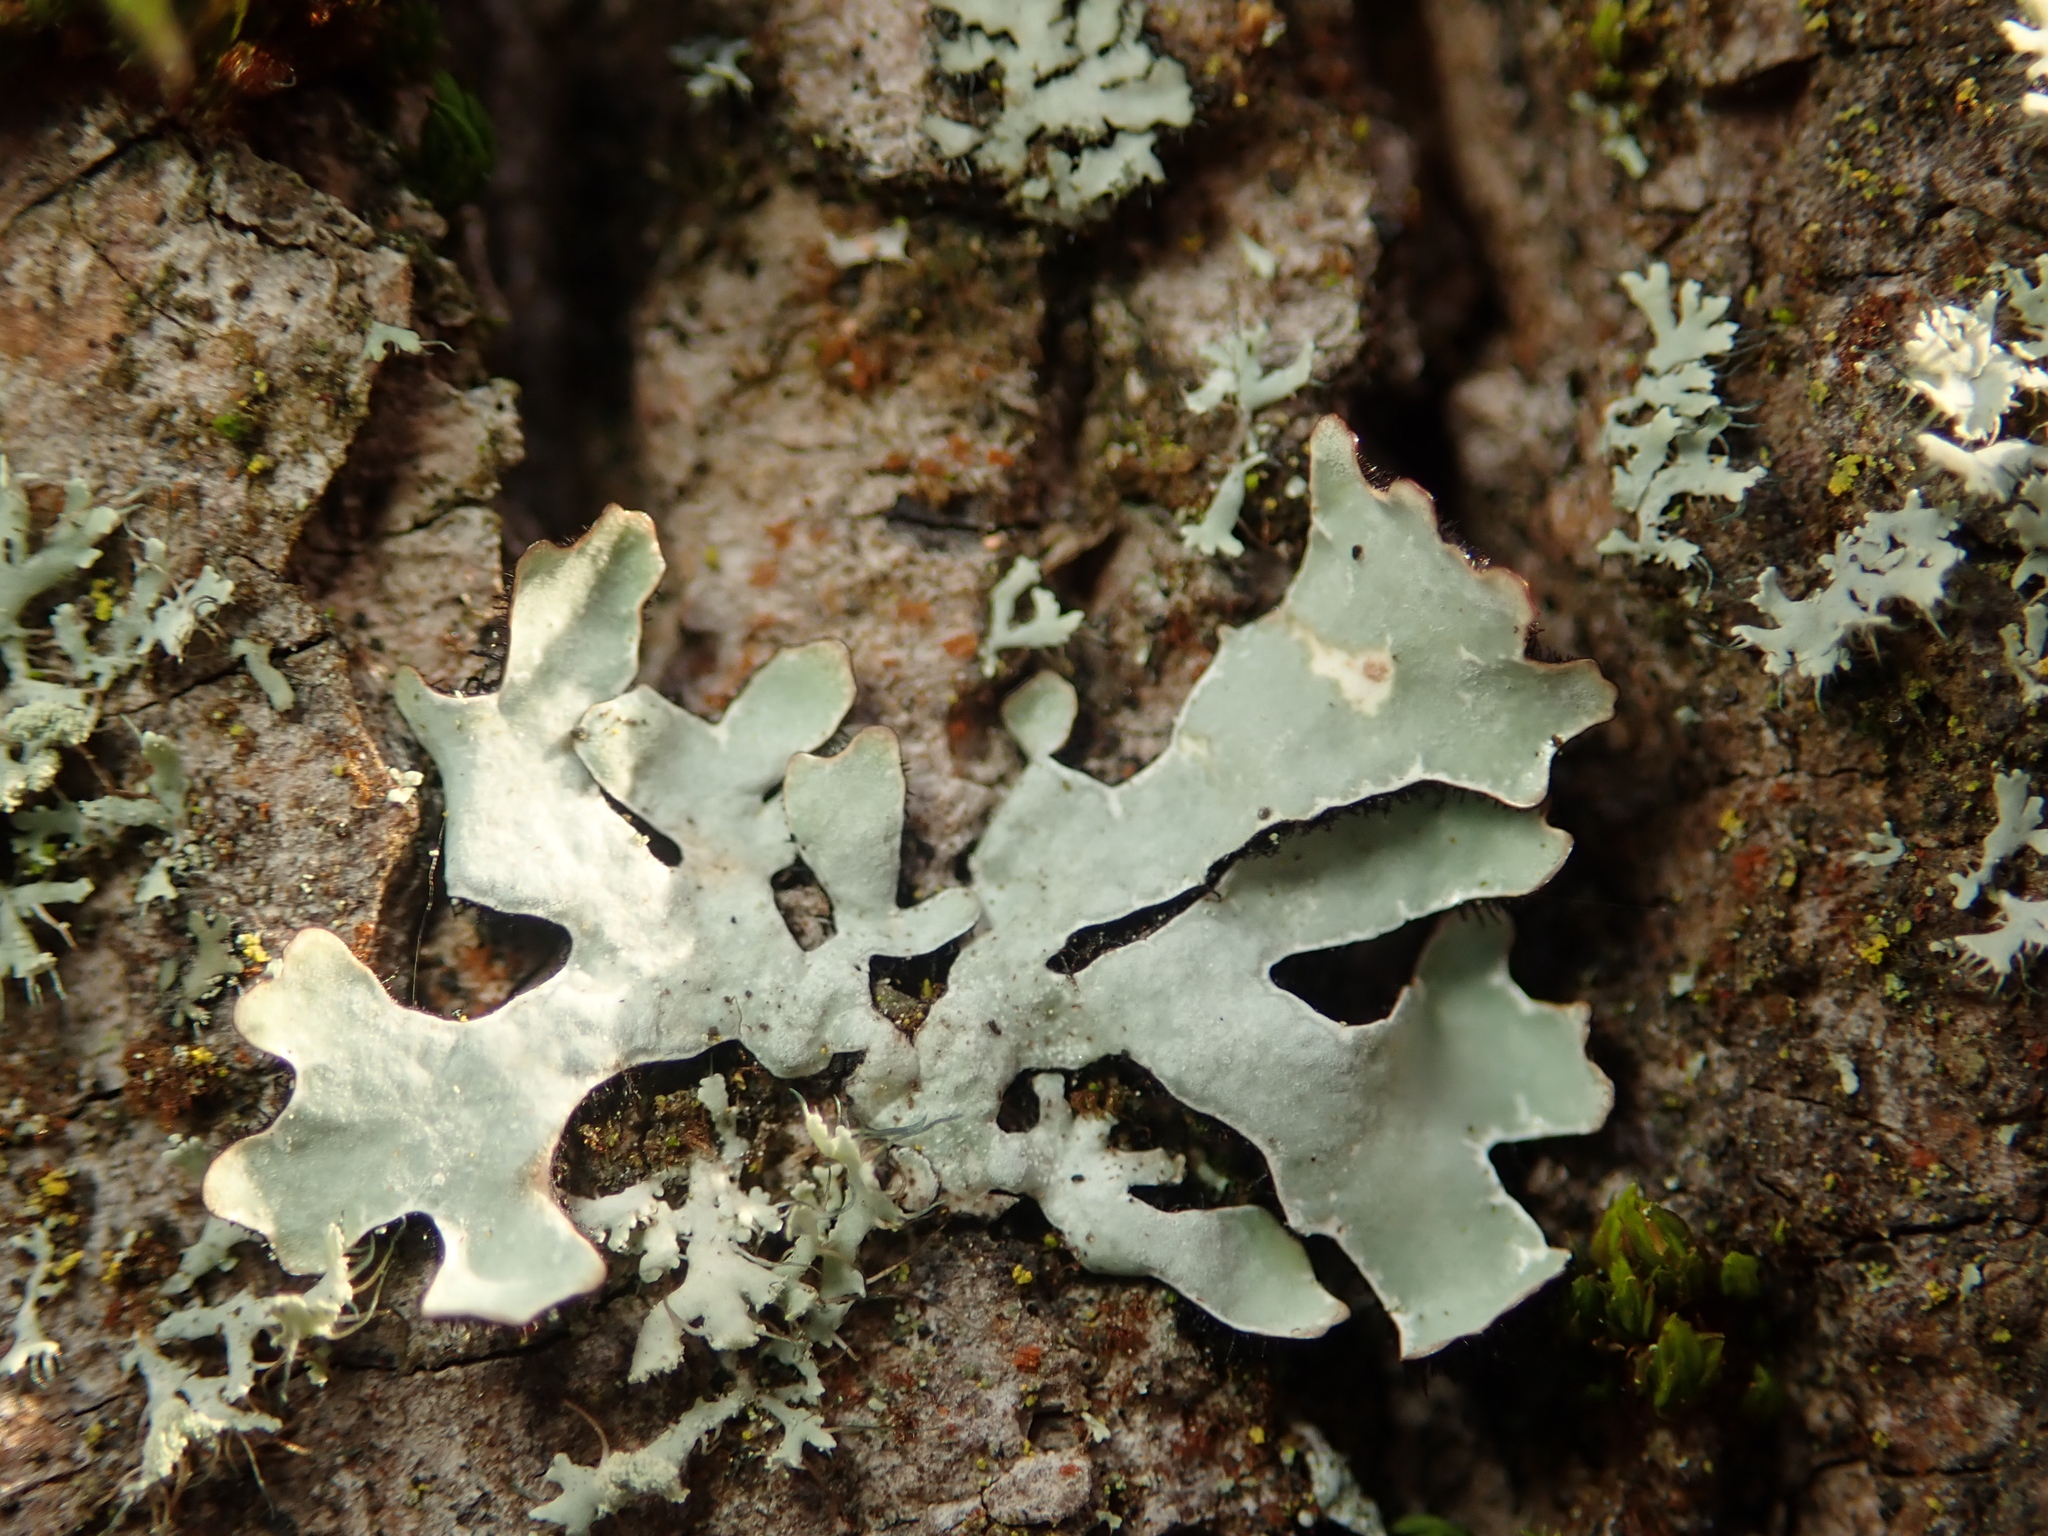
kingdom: Fungi
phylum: Ascomycota
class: Lecanoromycetes
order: Lecanorales
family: Parmeliaceae
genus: Parmelia
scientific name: Parmelia sulcata
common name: Netted shield lichen
